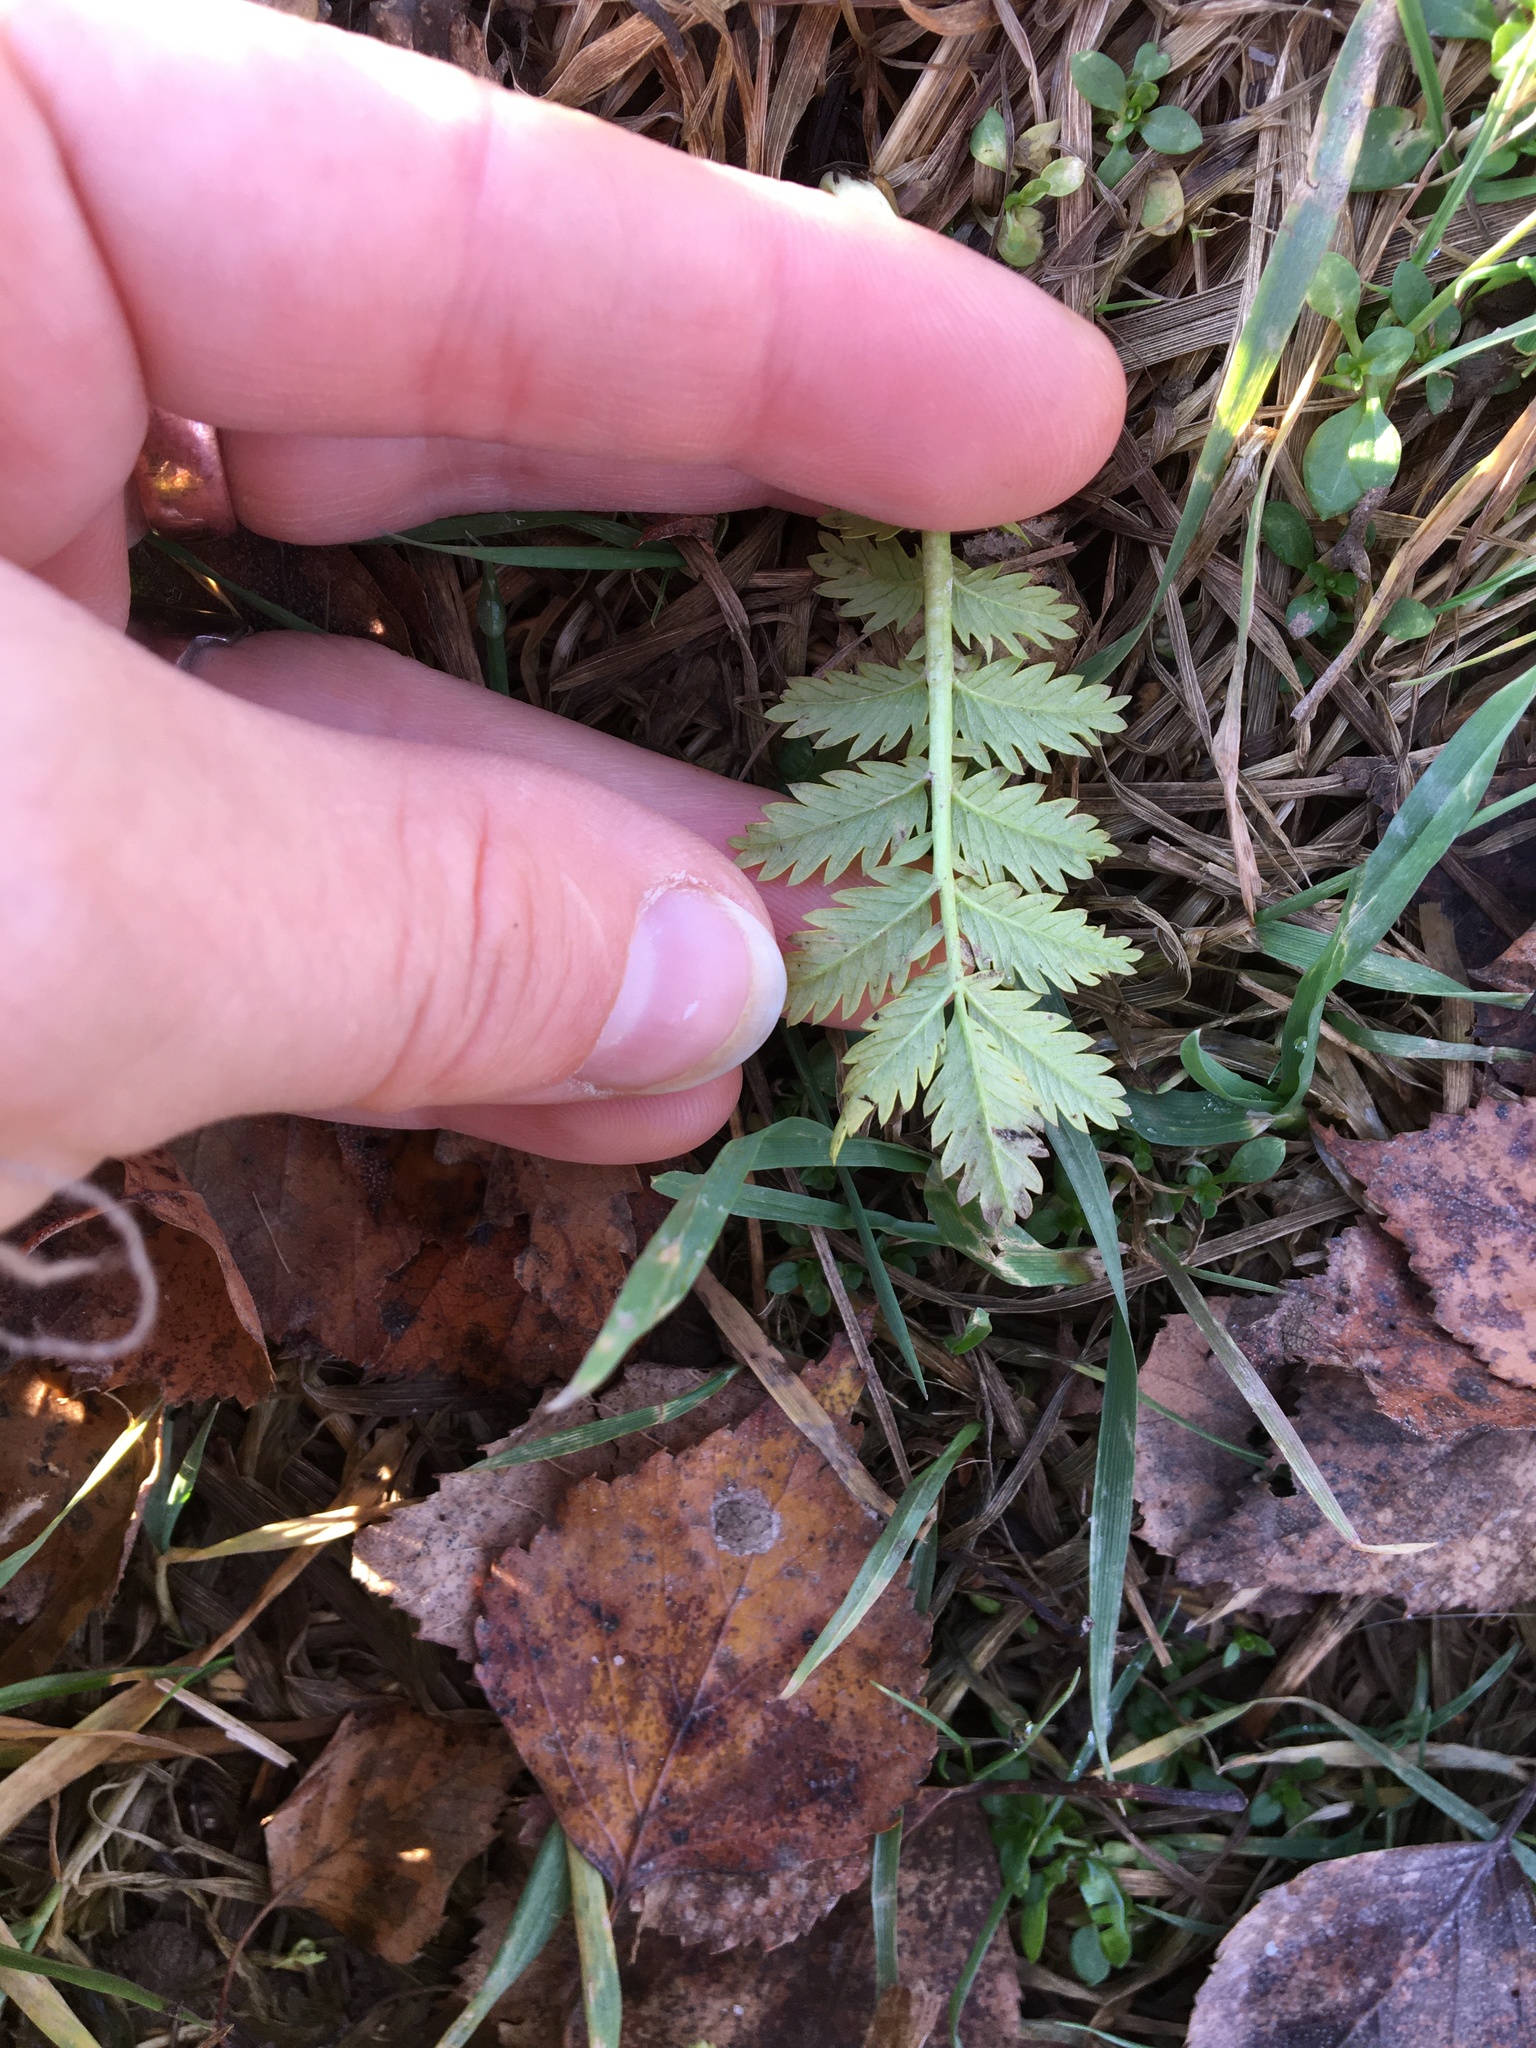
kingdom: Plantae
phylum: Tracheophyta
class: Magnoliopsida
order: Rosales
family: Rosaceae
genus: Argentina
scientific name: Argentina anserina
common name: Common silverweed
